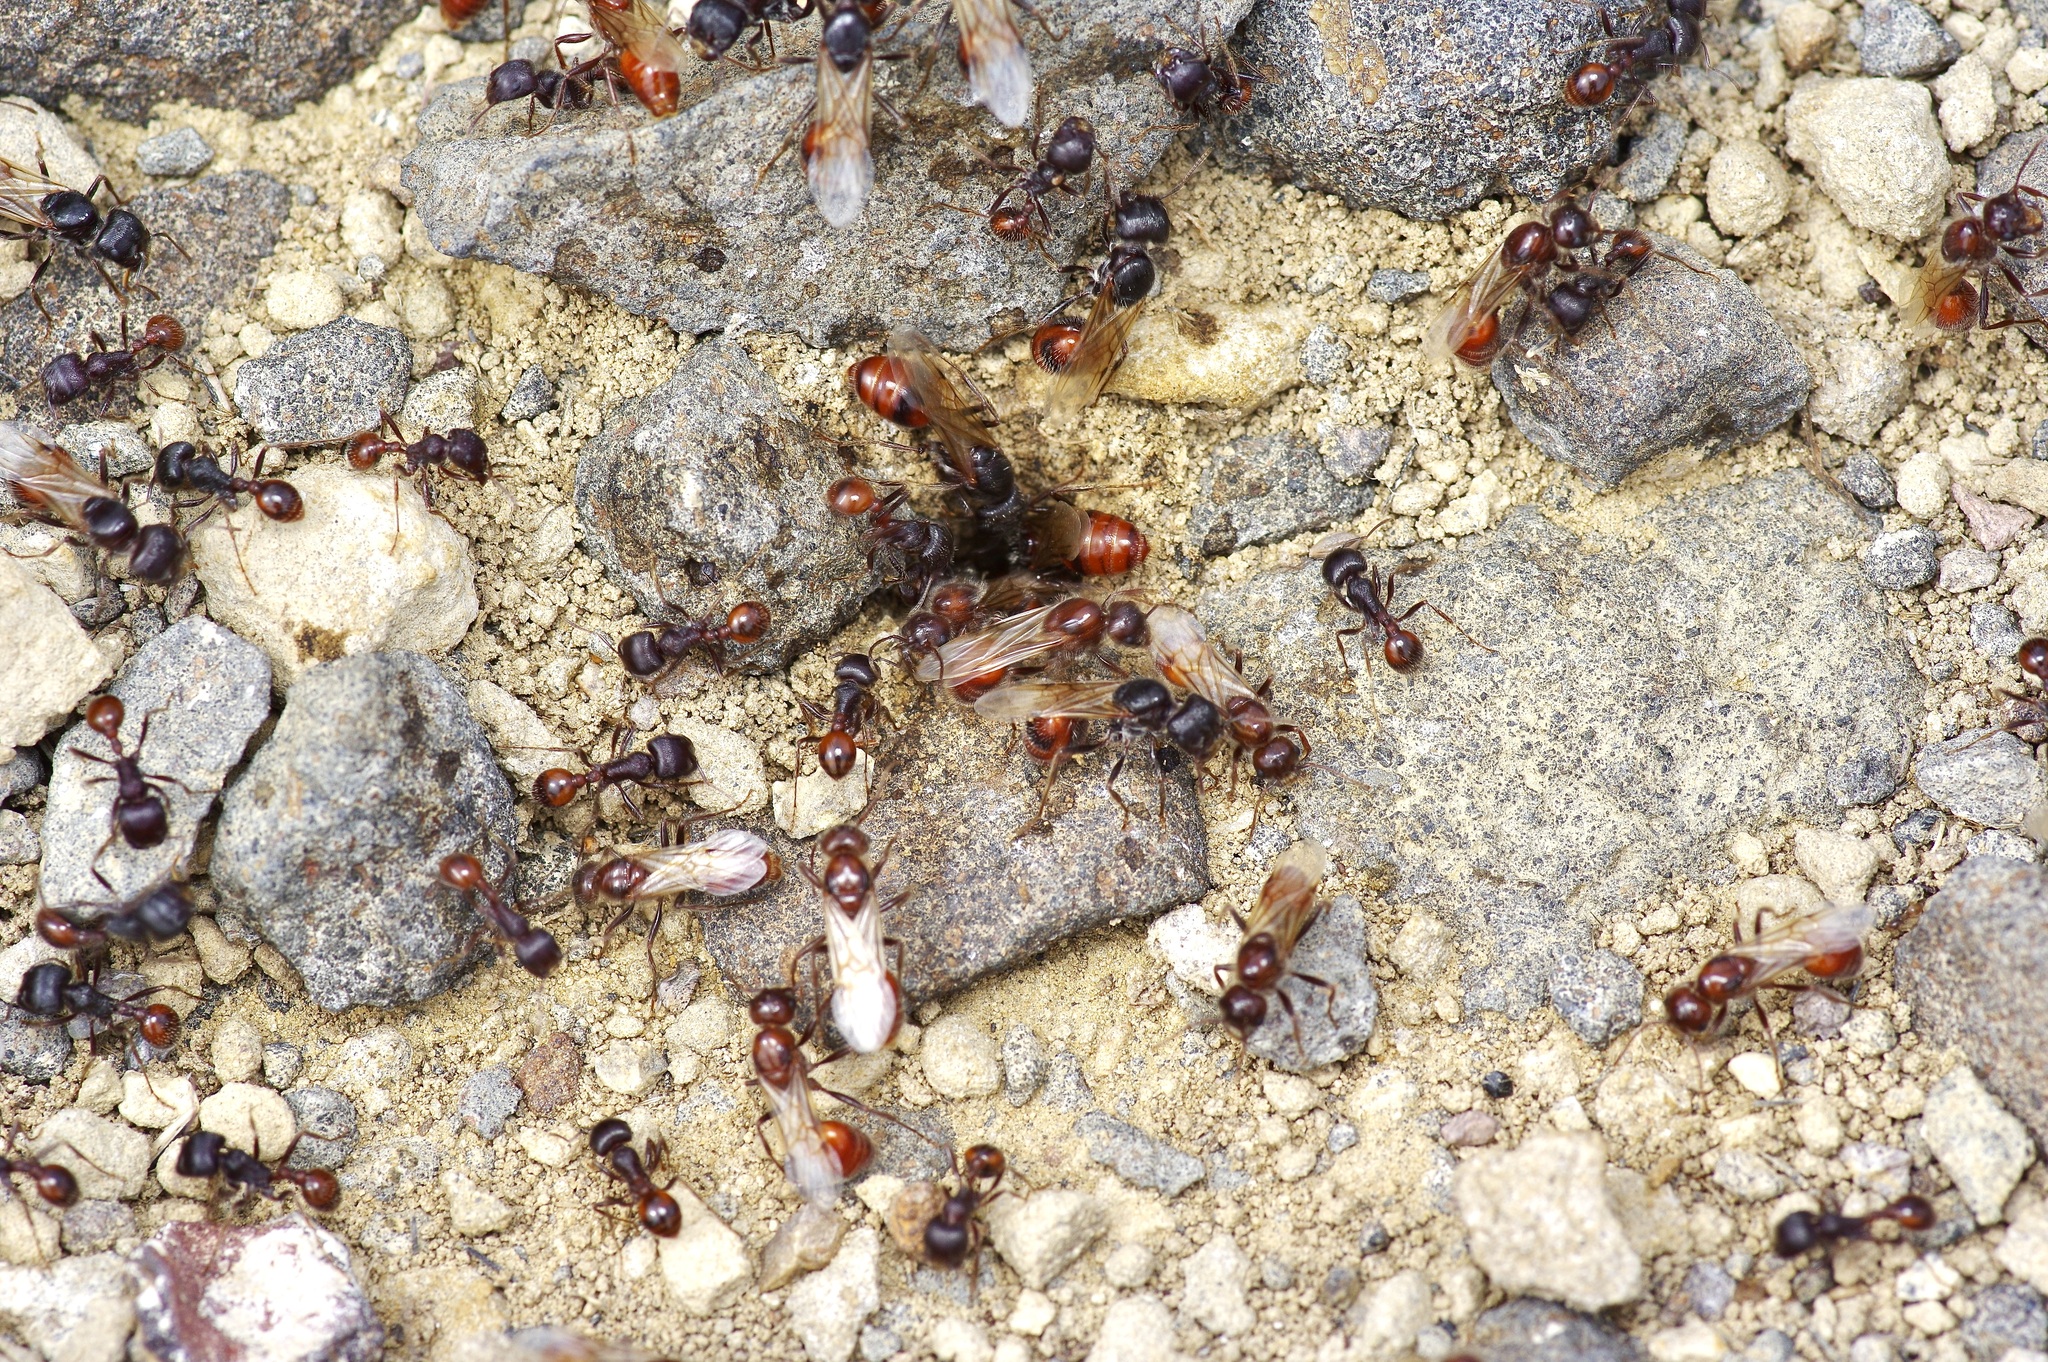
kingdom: Animalia
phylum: Arthropoda
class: Insecta
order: Hymenoptera
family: Formicidae
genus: Pogonomyrmex
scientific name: Pogonomyrmex rugosus
